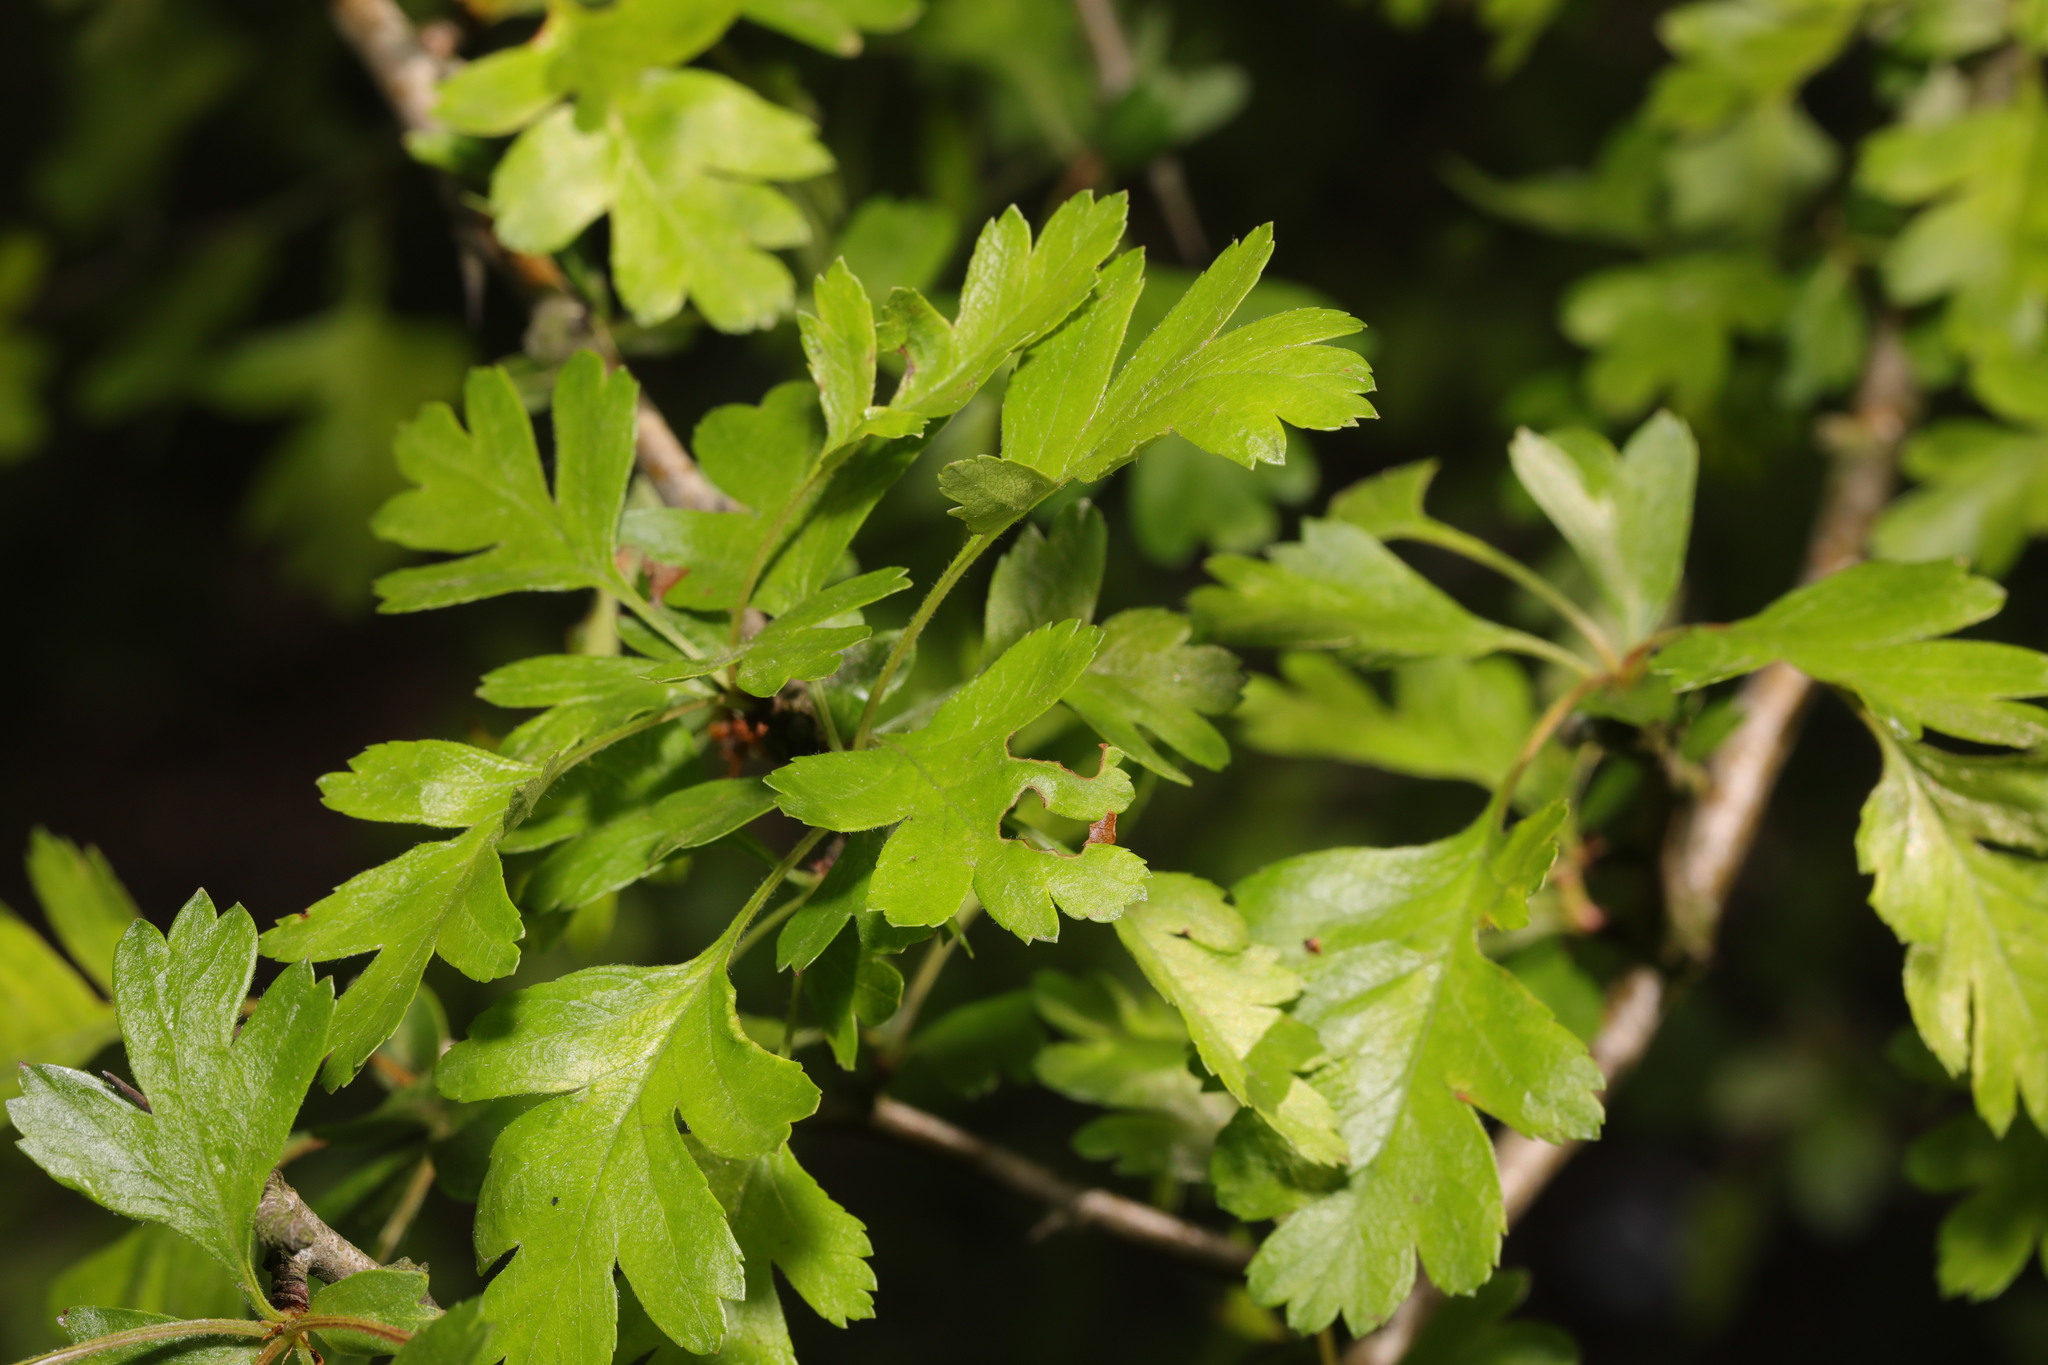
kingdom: Plantae
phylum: Tracheophyta
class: Magnoliopsida
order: Rosales
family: Rosaceae
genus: Crataegus
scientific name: Crataegus monogyna
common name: Hawthorn
